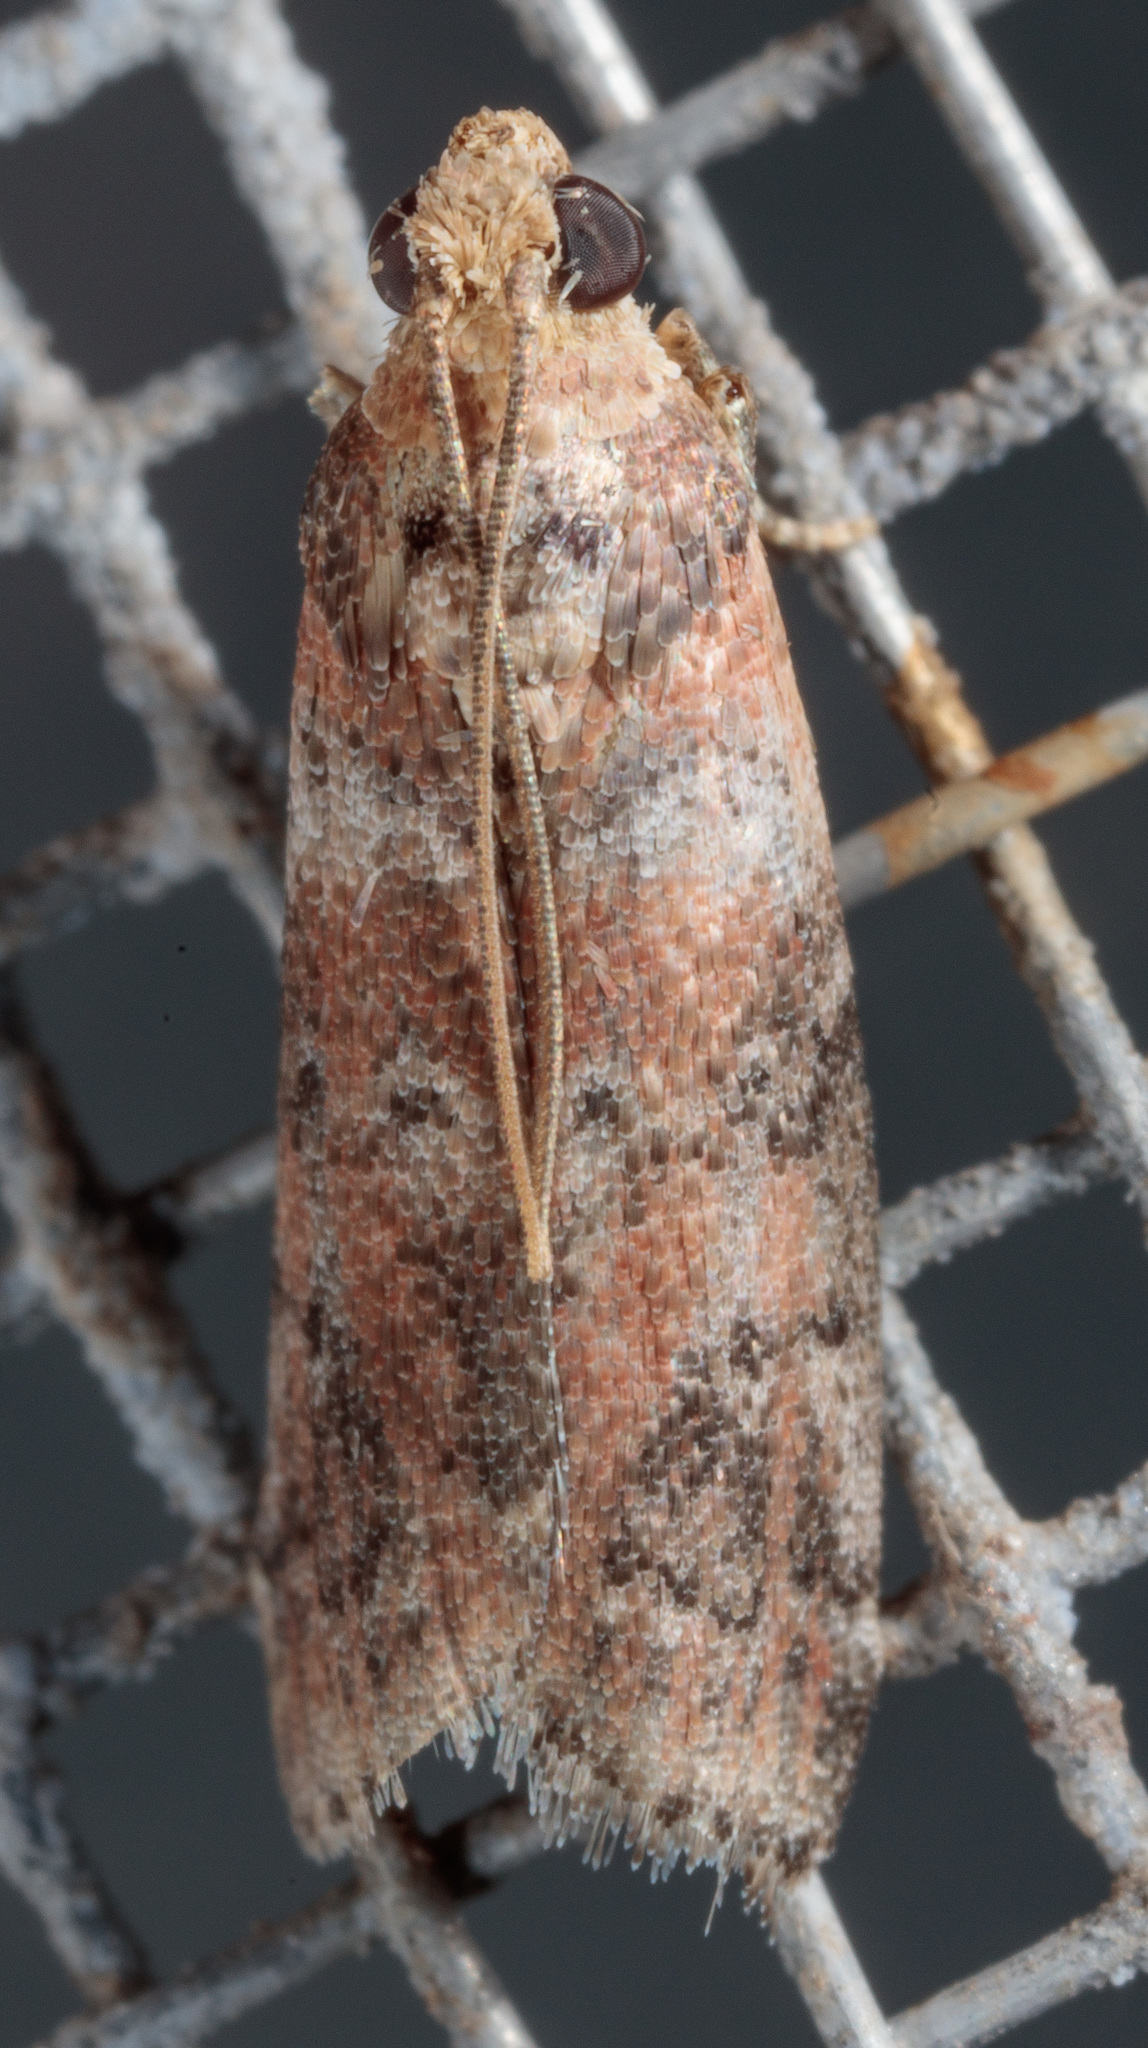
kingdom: Animalia
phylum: Arthropoda
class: Insecta
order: Lepidoptera
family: Pyralidae
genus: Sciota
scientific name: Sciota
